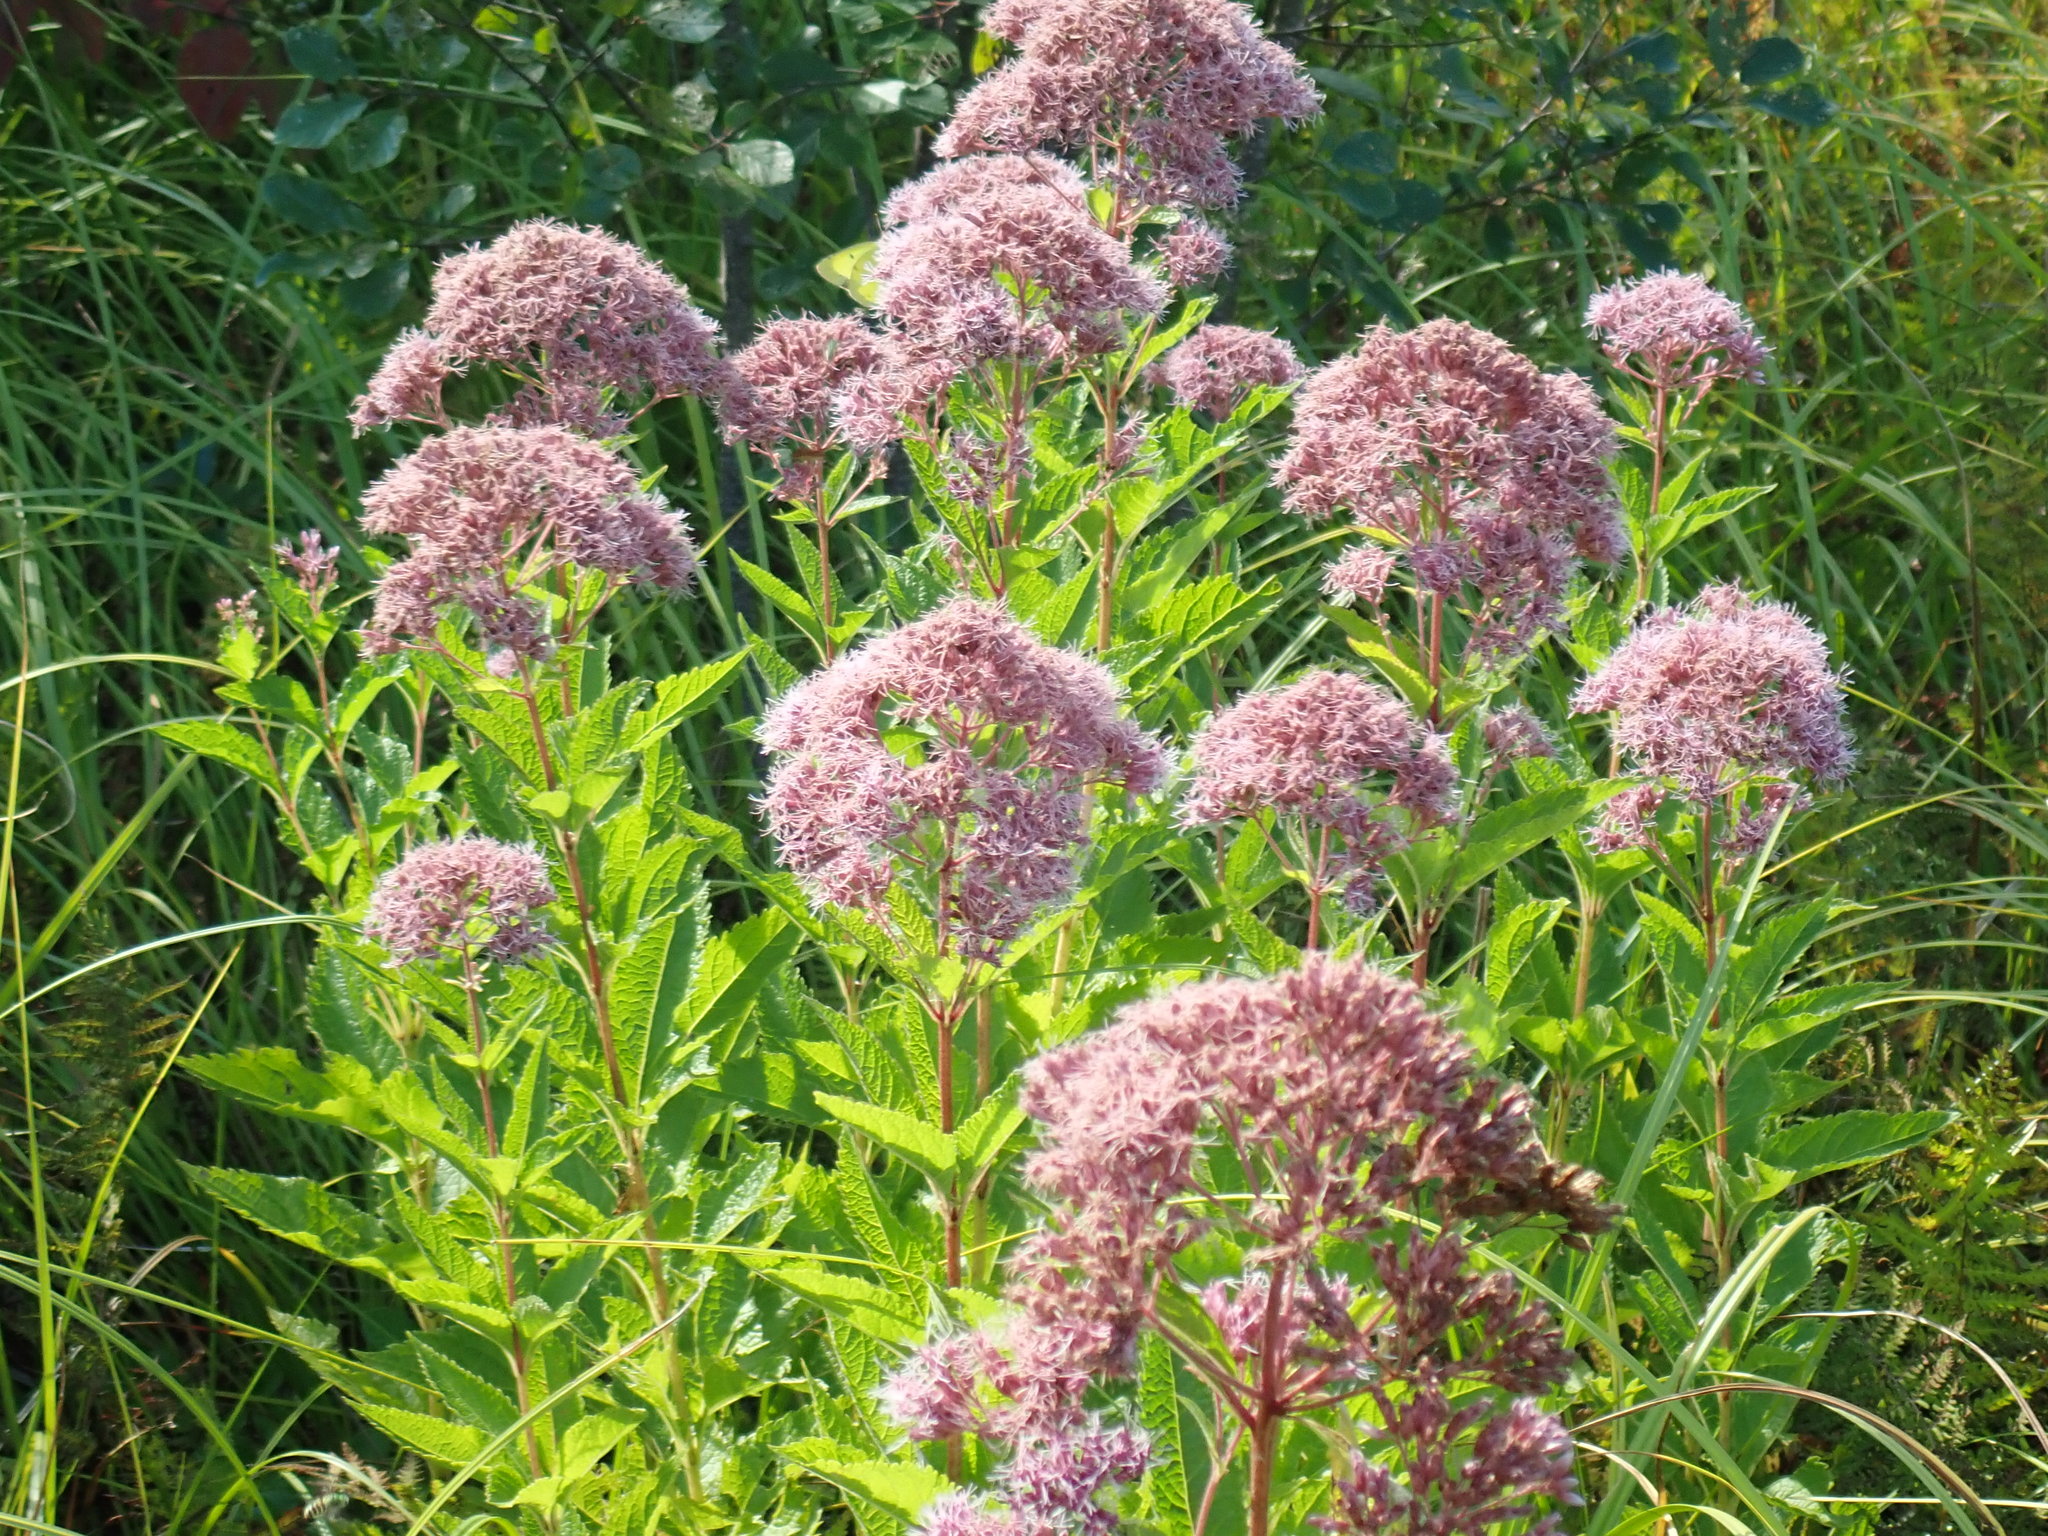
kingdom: Plantae
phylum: Tracheophyta
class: Magnoliopsida
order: Asterales
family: Asteraceae
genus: Eutrochium
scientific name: Eutrochium
